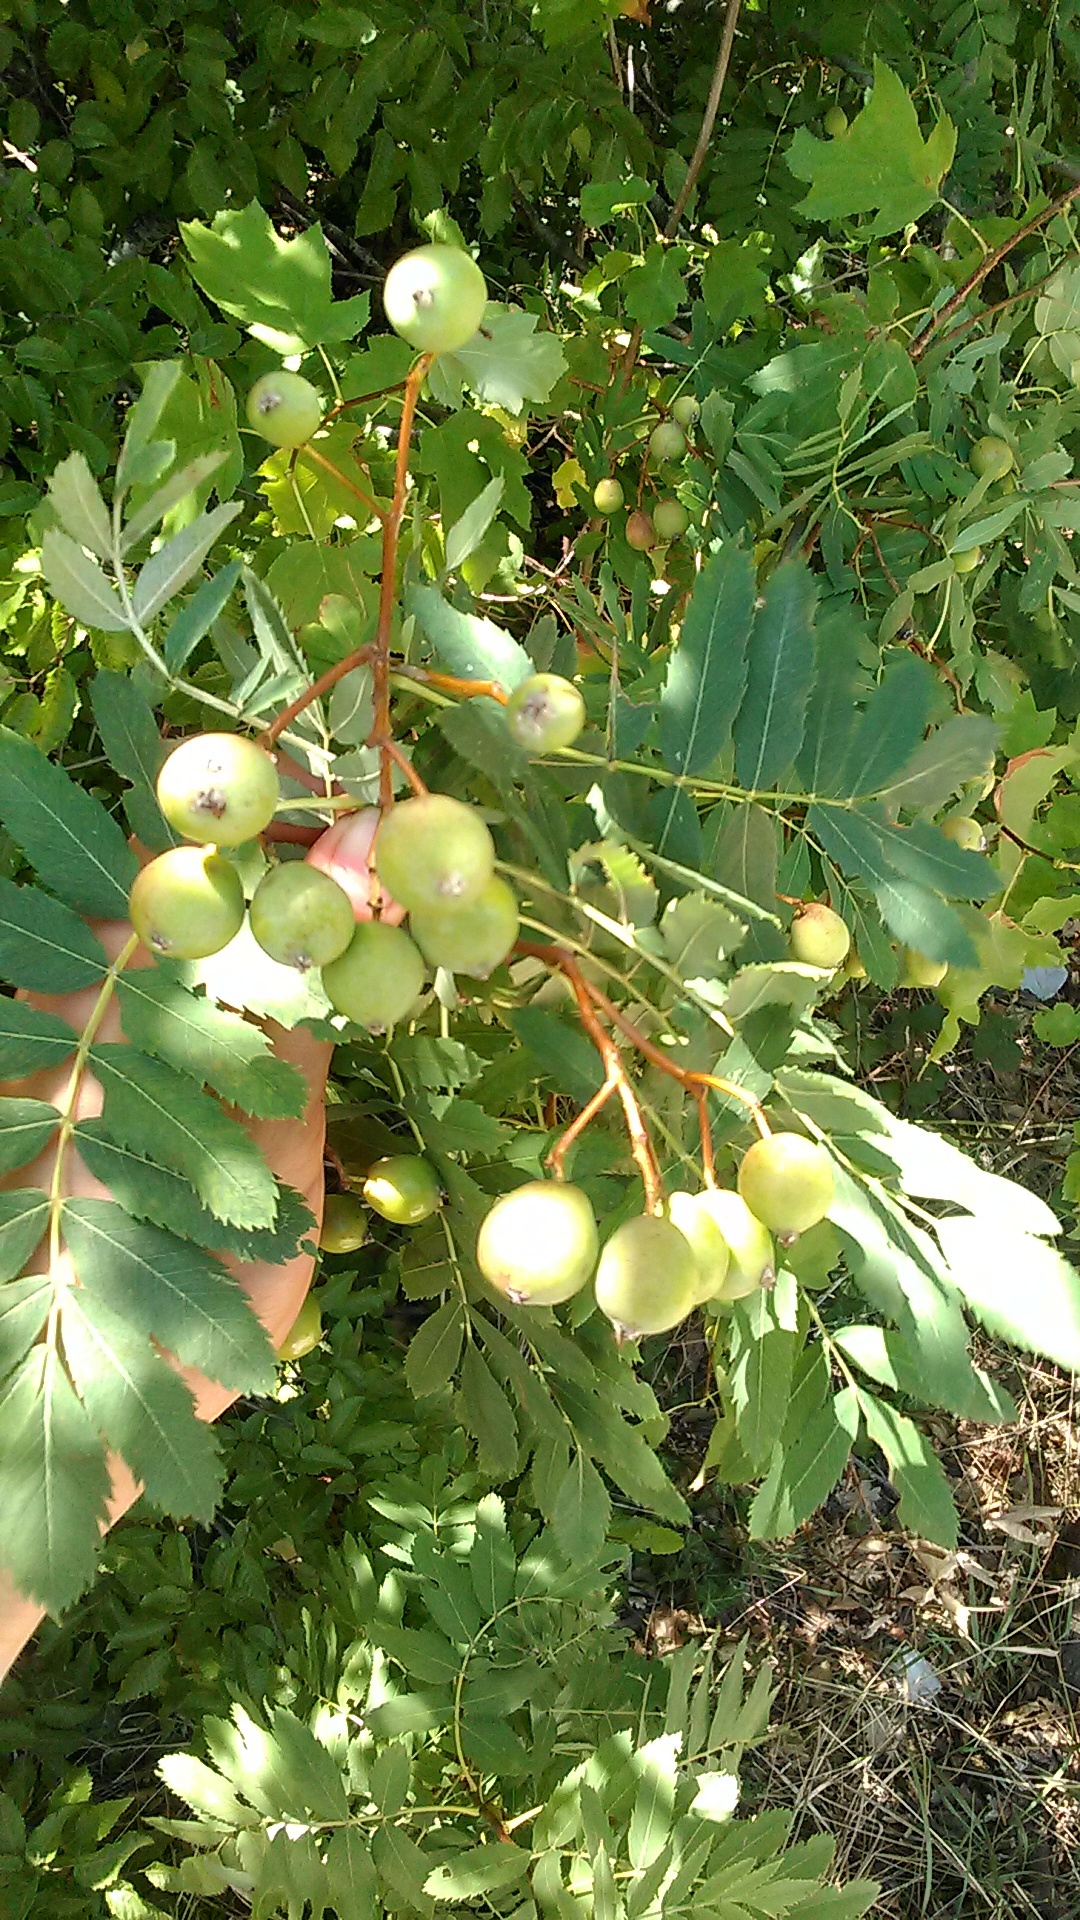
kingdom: Plantae
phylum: Tracheophyta
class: Magnoliopsida
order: Rosales
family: Rosaceae
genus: Cormus
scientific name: Cormus domestica
